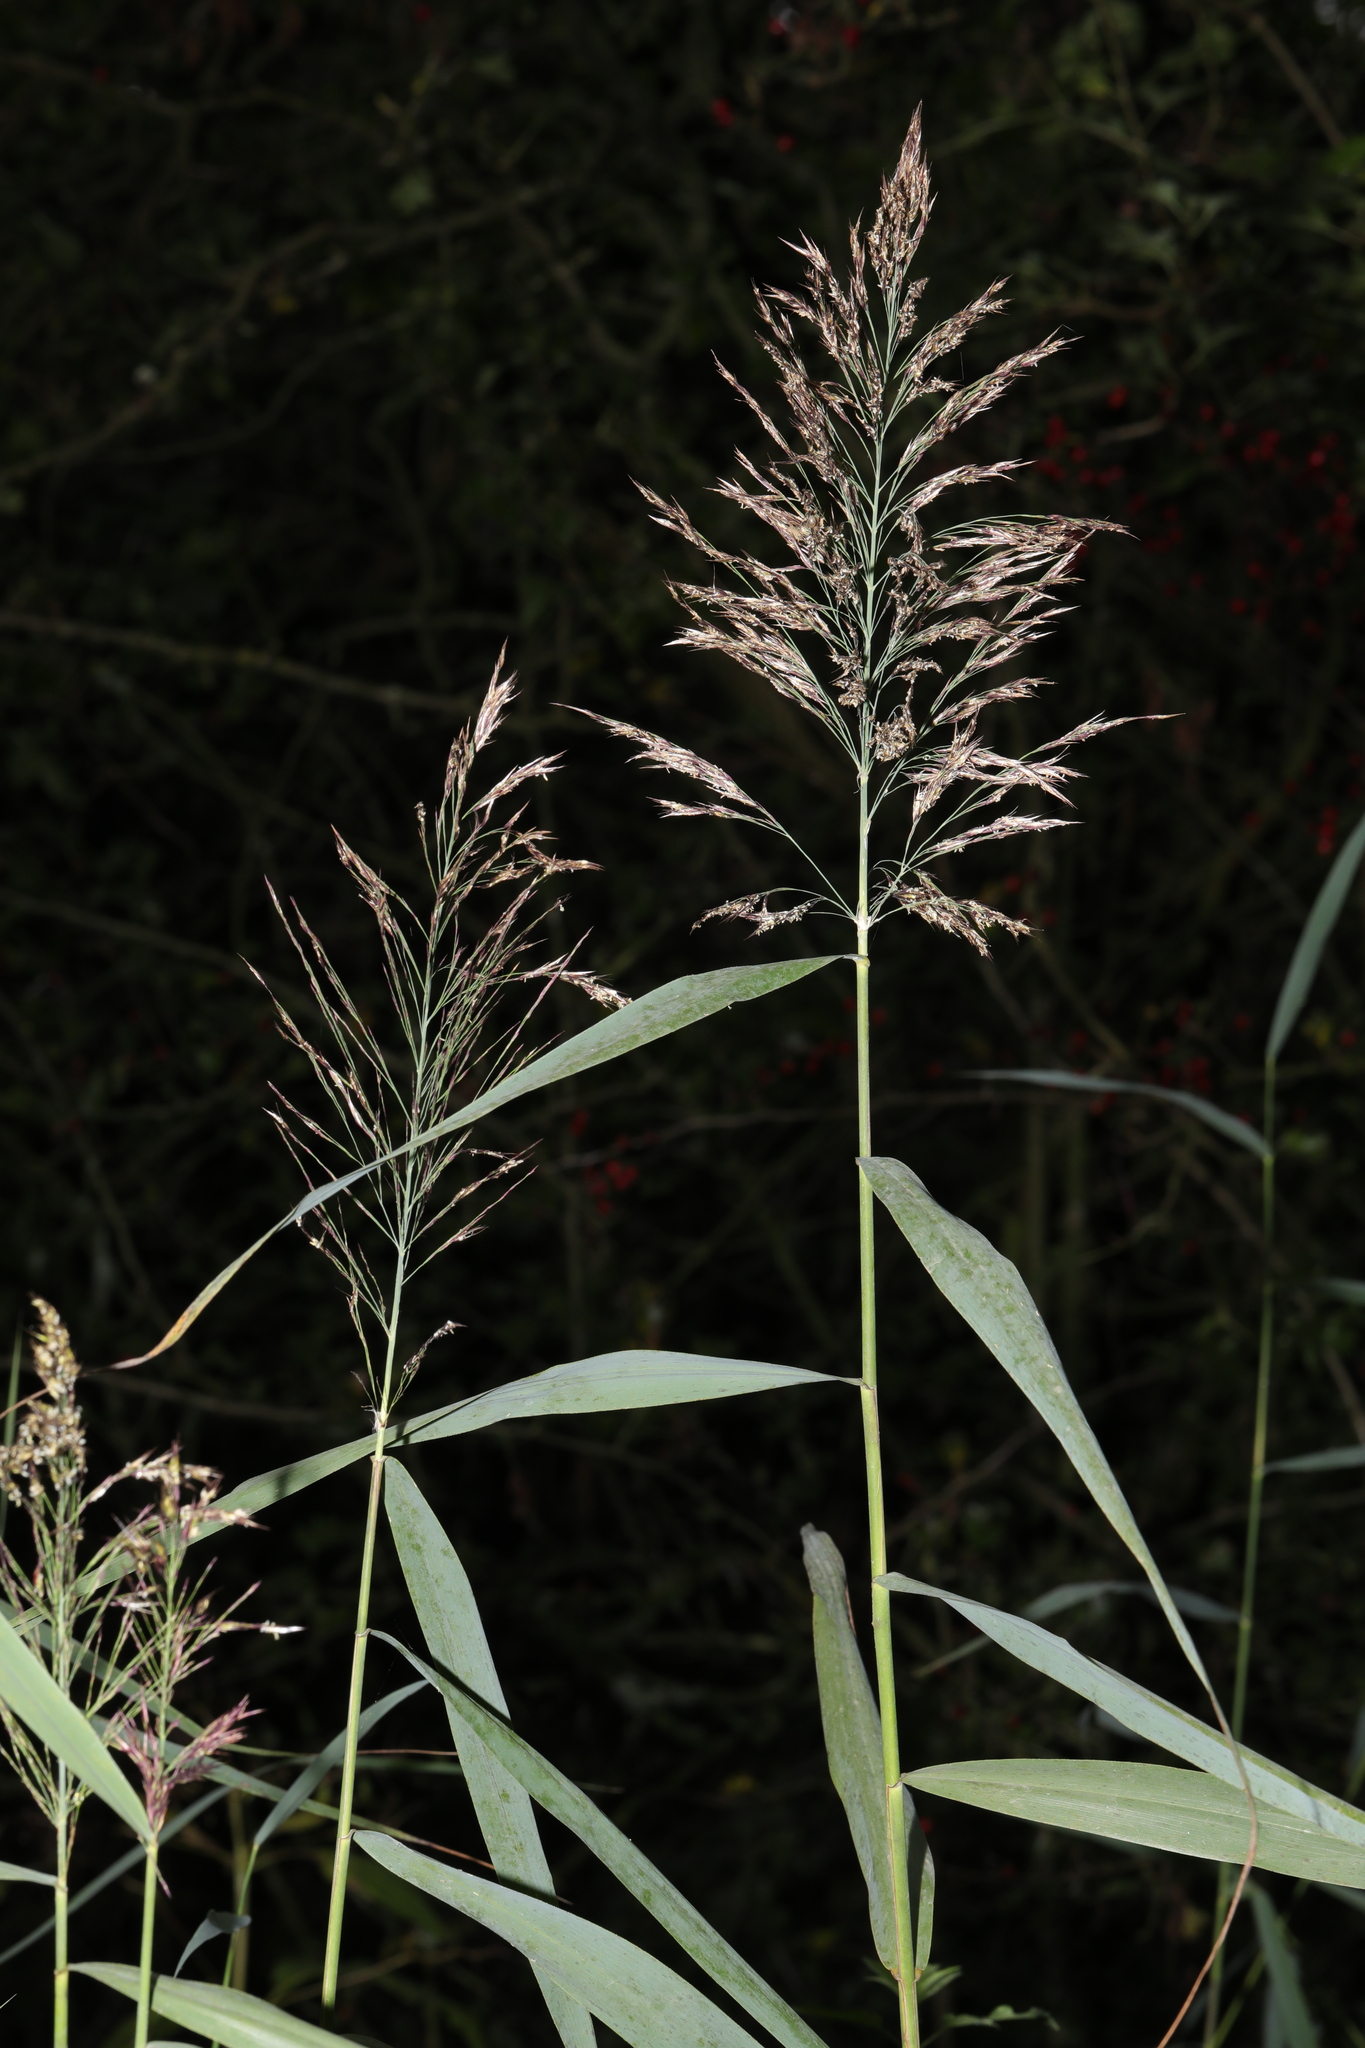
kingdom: Plantae
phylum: Tracheophyta
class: Liliopsida
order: Poales
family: Poaceae
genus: Phragmites
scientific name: Phragmites australis
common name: Common reed
